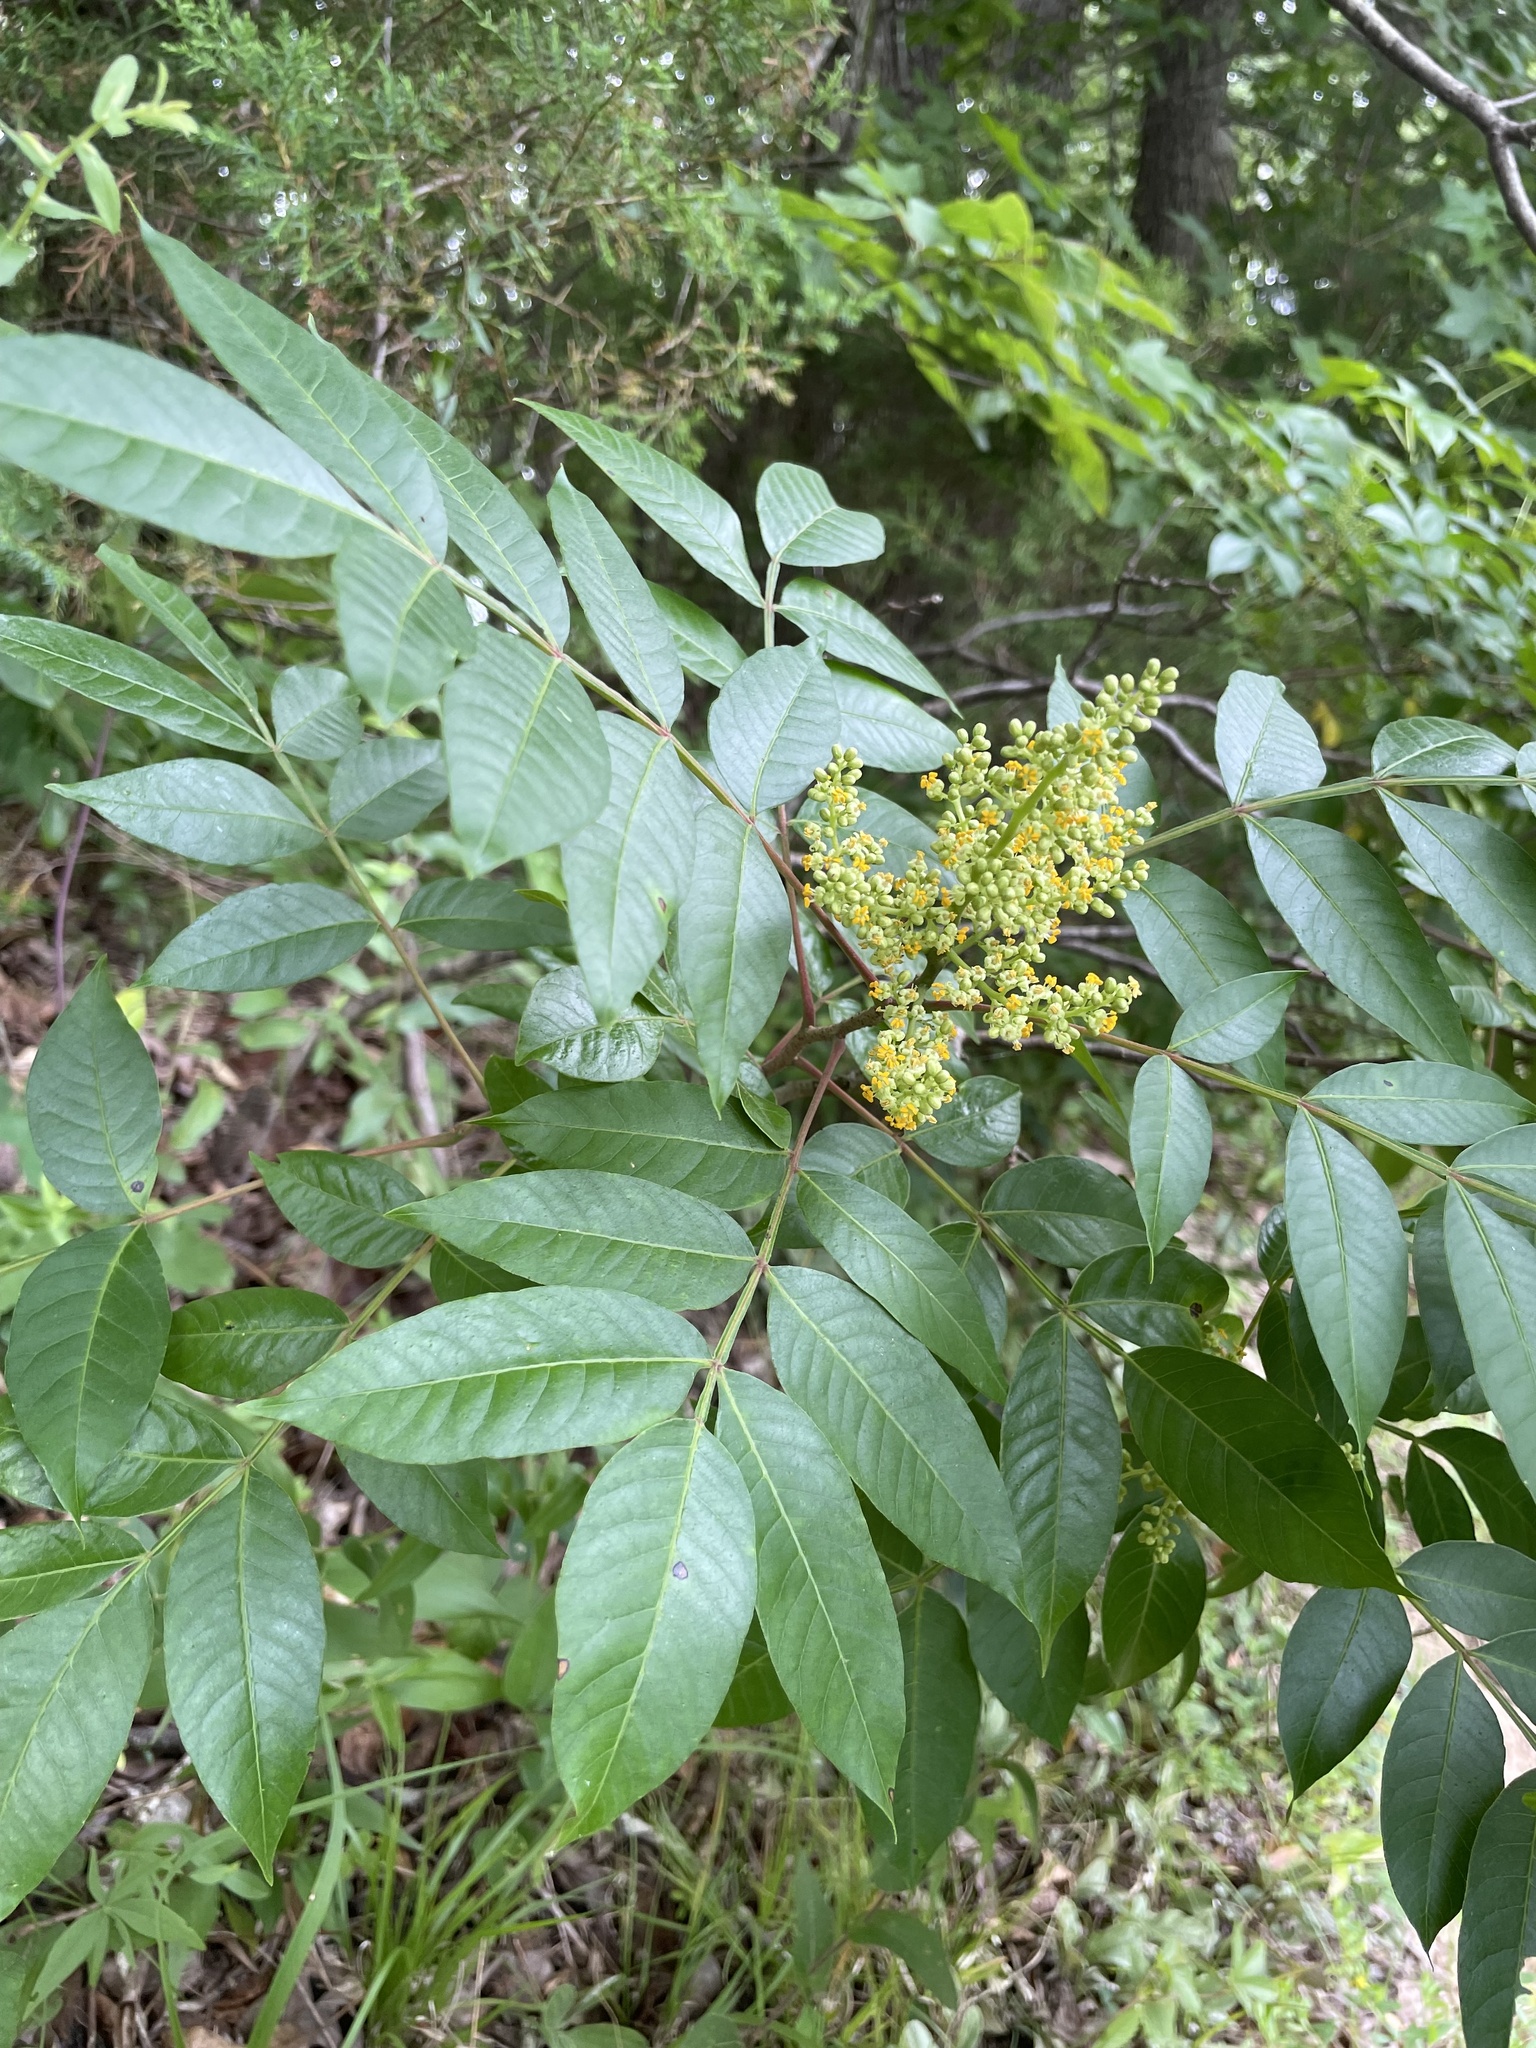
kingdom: Plantae
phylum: Tracheophyta
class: Magnoliopsida
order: Sapindales
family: Anacardiaceae
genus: Rhus
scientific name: Rhus copallina
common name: Shining sumac
